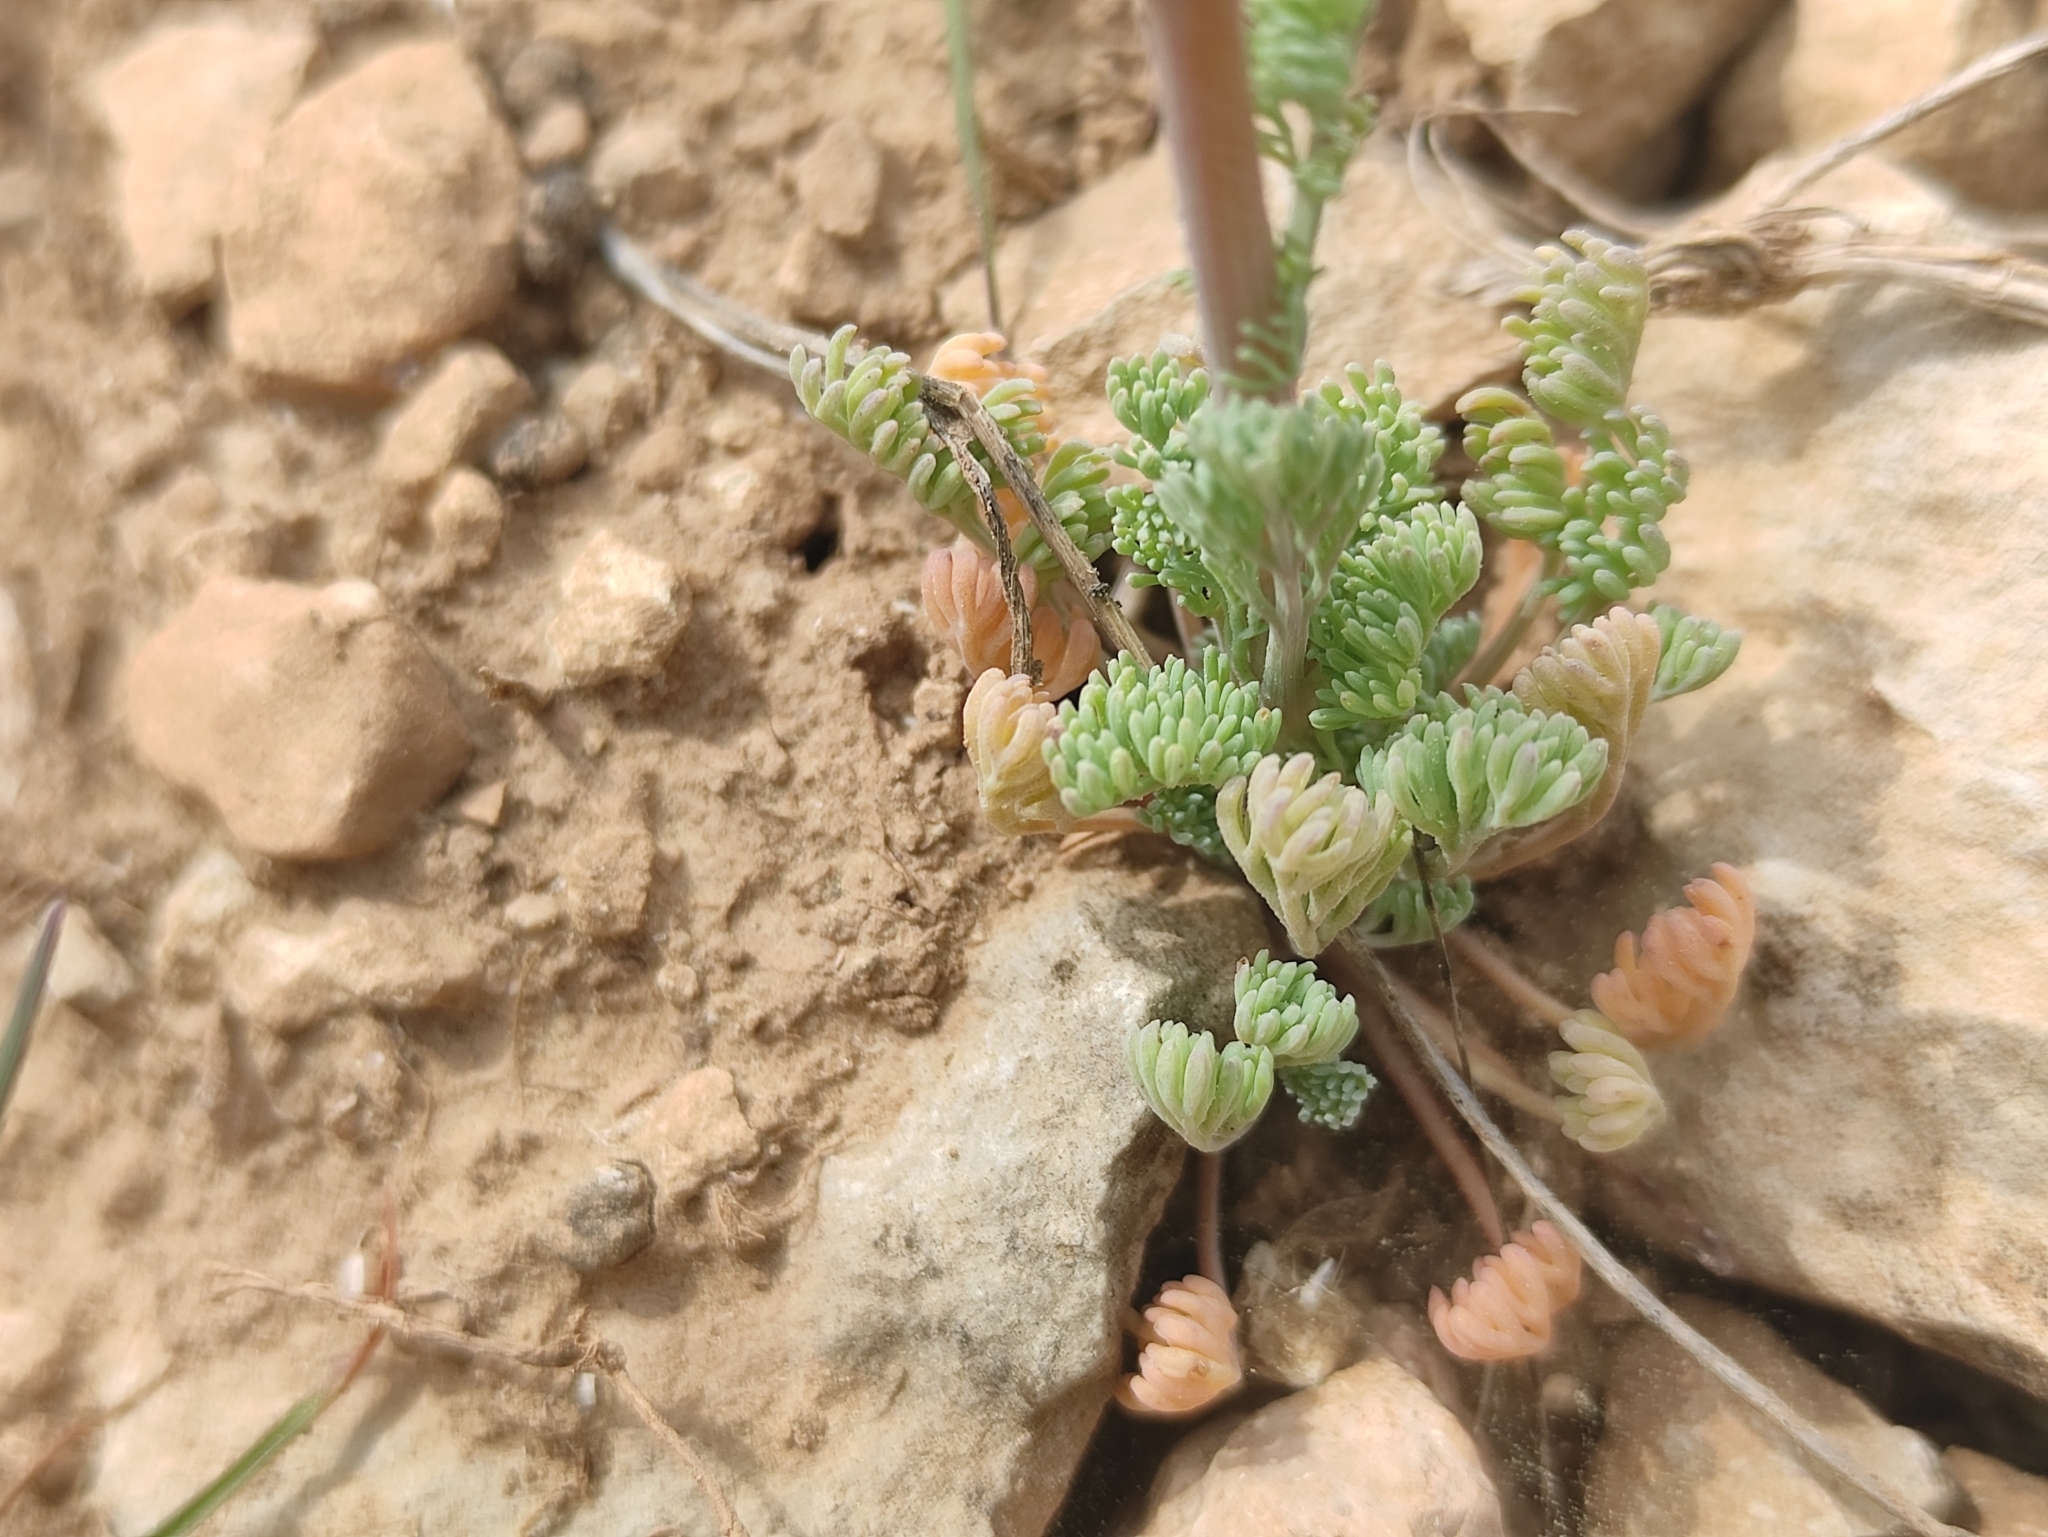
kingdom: Plantae
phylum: Tracheophyta
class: Magnoliopsida
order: Ranunculales
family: Papaveraceae
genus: Platycapnos
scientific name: Platycapnos spicata
